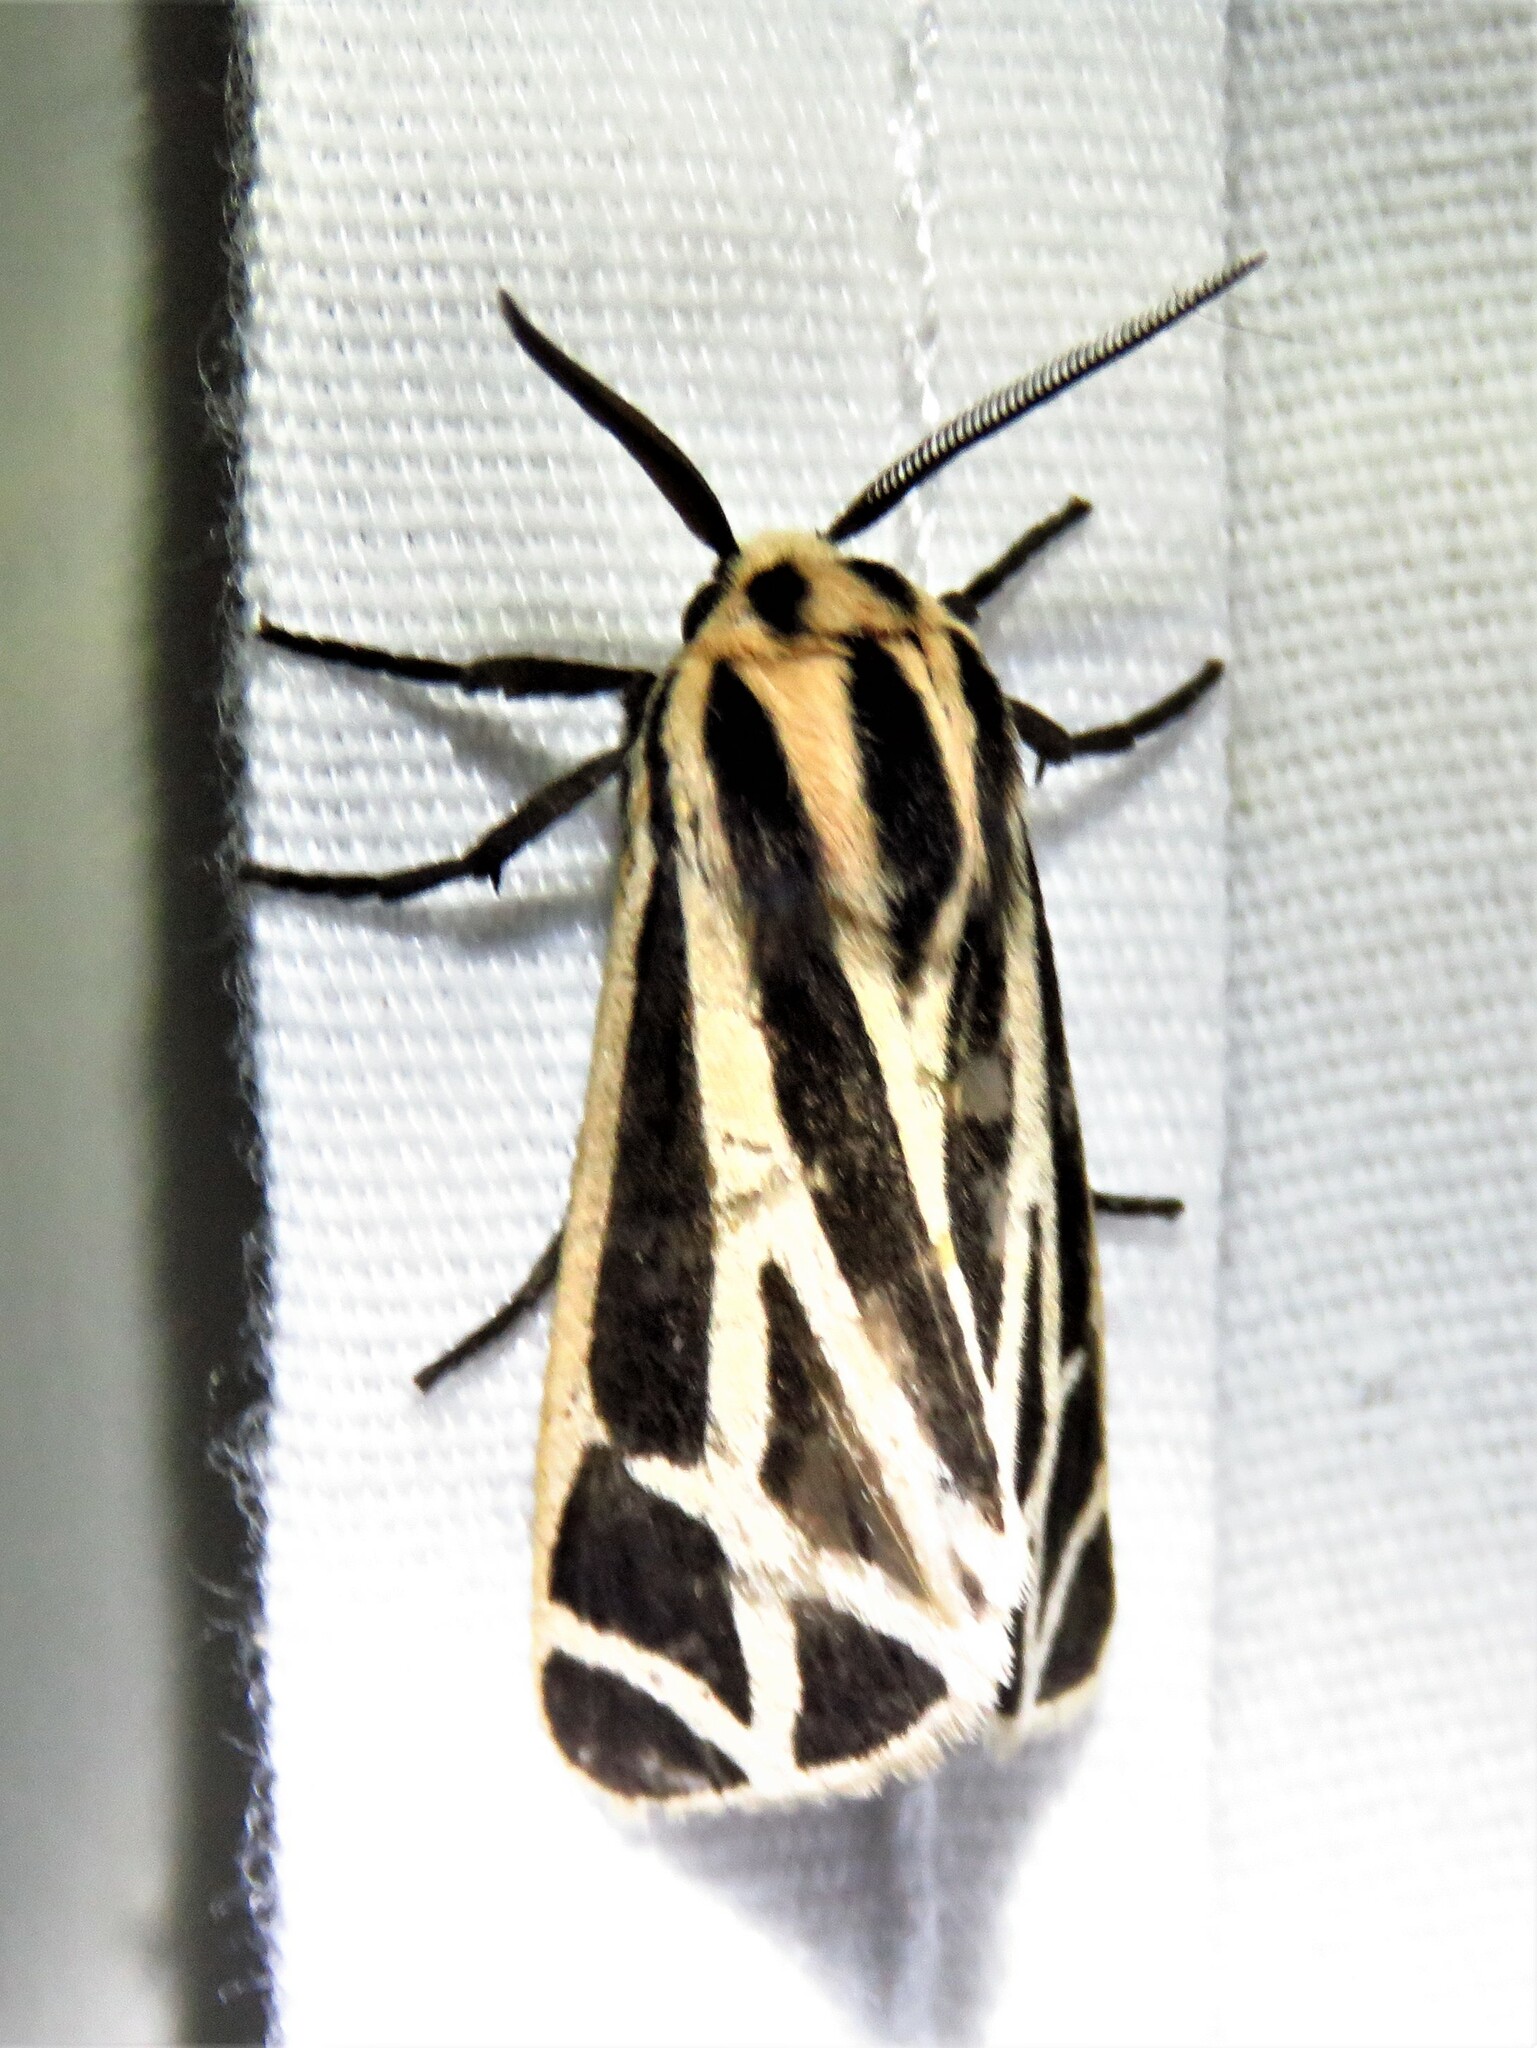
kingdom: Animalia
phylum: Arthropoda
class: Insecta
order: Lepidoptera
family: Erebidae
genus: Apantesis
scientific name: Apantesis phalerata
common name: Harnessed tiger moth
